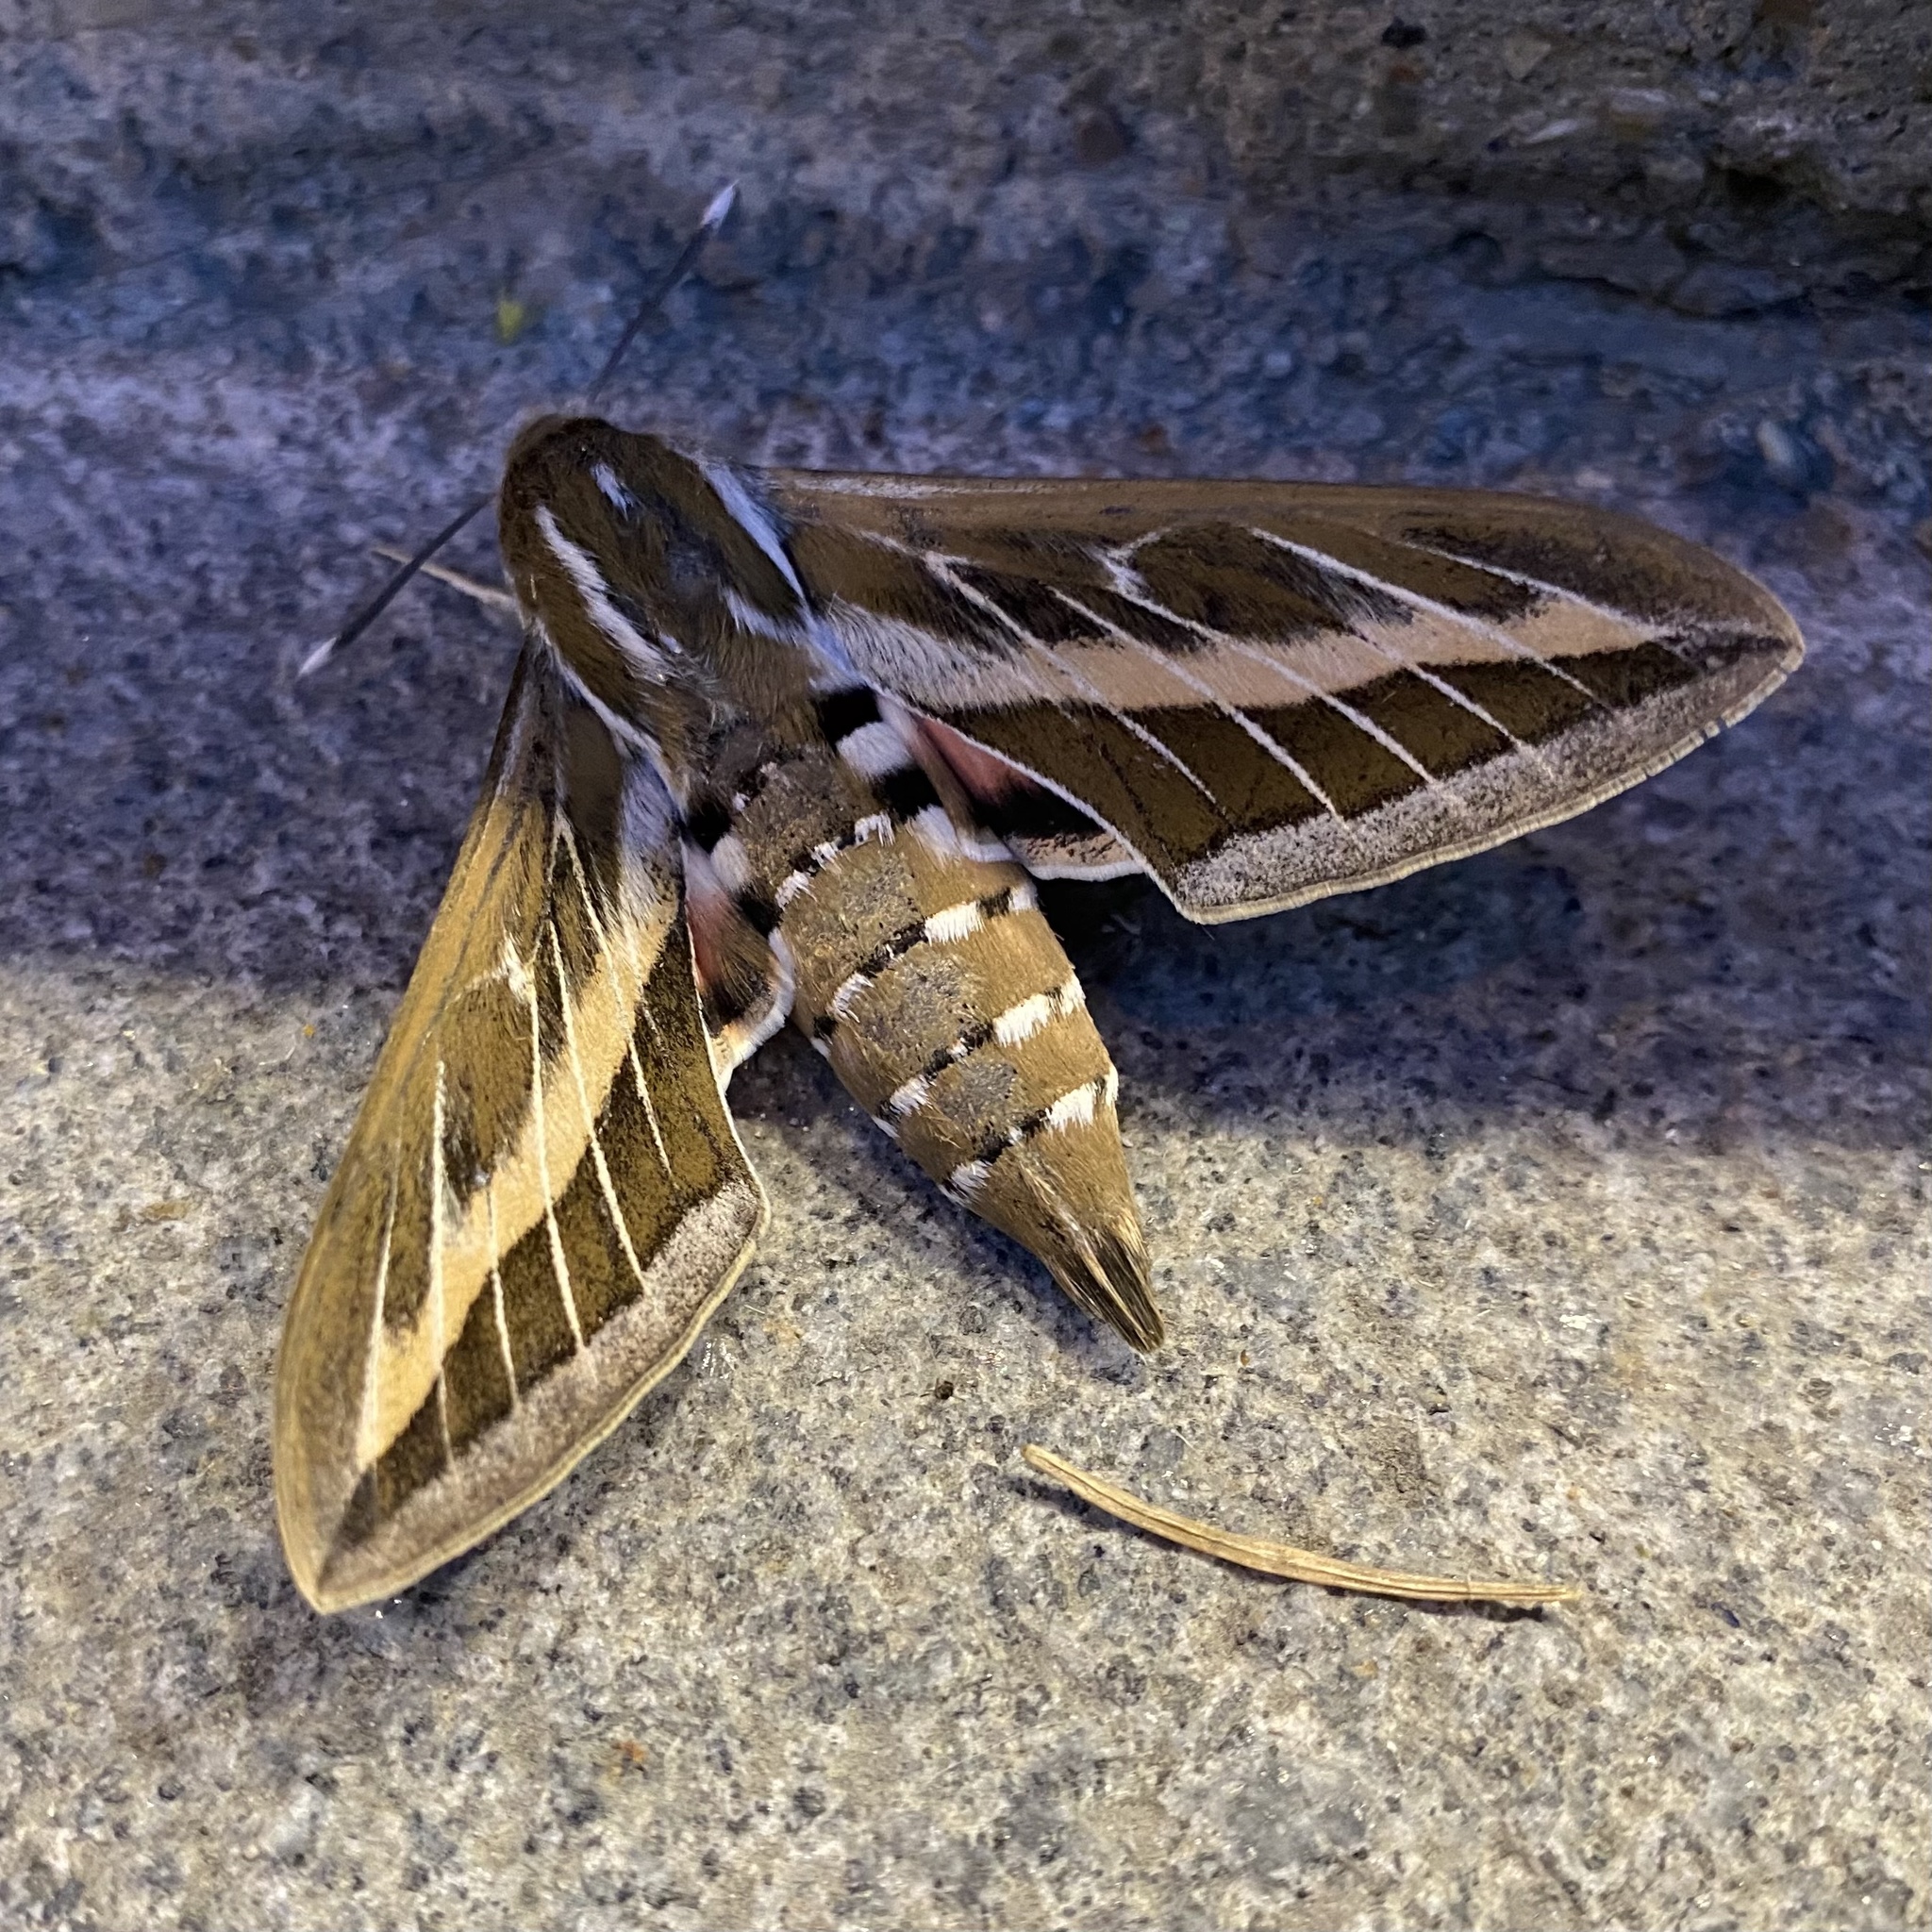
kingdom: Animalia
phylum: Arthropoda
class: Insecta
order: Lepidoptera
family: Sphingidae
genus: Hyles
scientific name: Hyles livornica
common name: Striped hawk-moth
